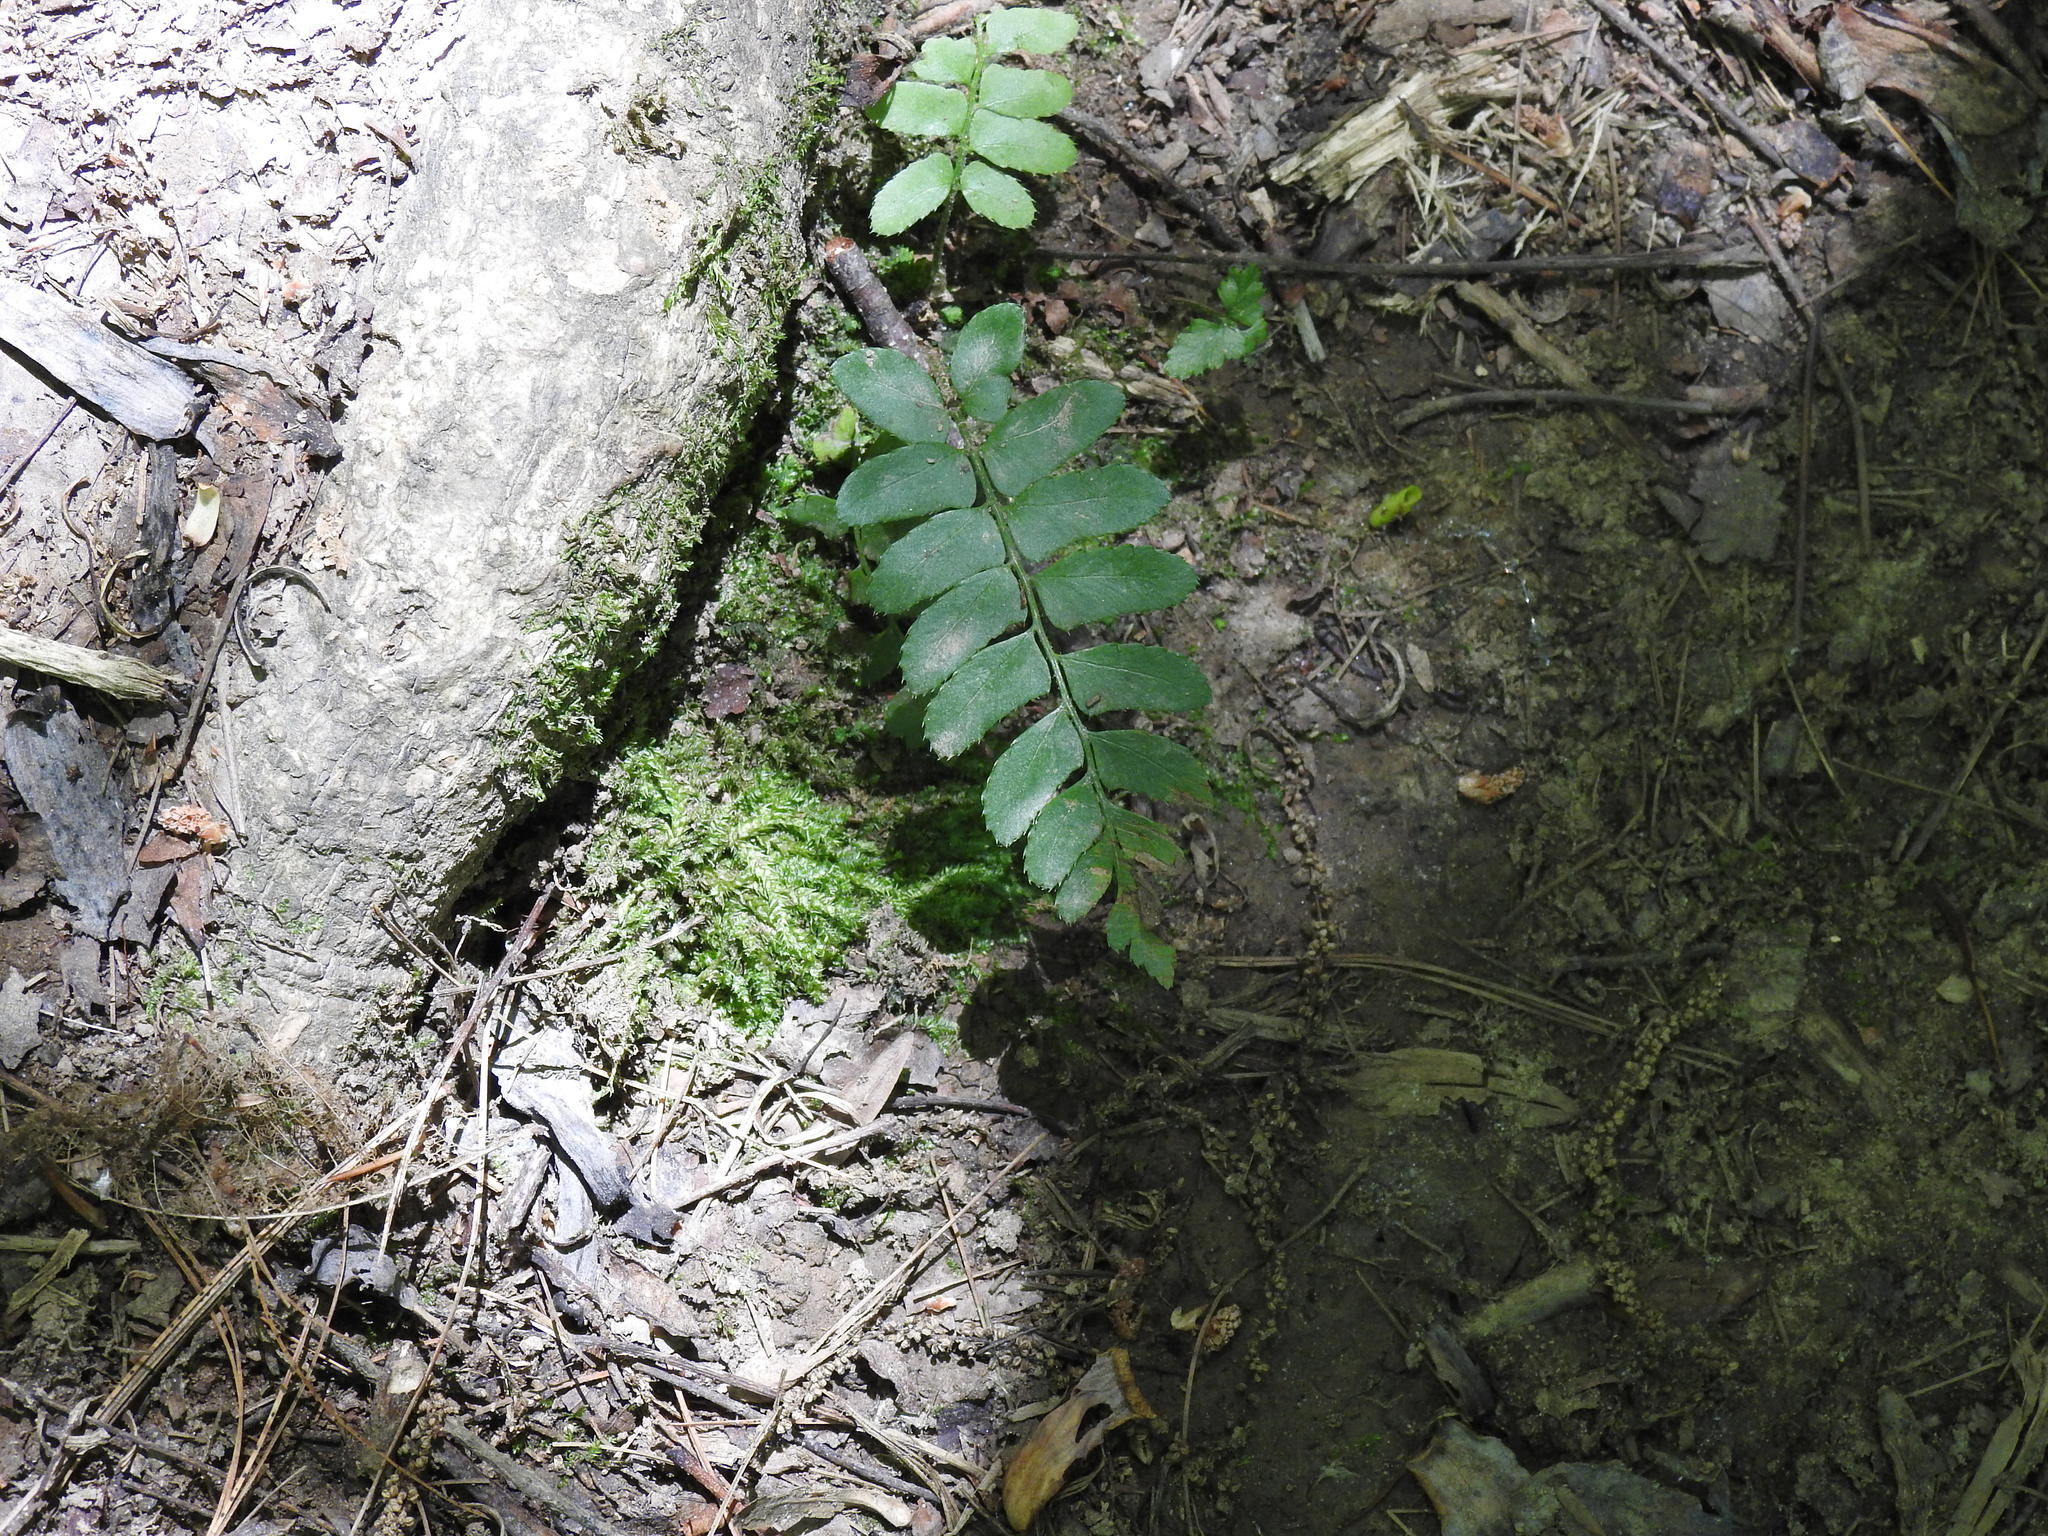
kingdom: Plantae
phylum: Tracheophyta
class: Polypodiopsida
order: Polypodiales
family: Dryopteridaceae
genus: Polystichum
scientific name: Polystichum acrostichoides
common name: Christmas fern
